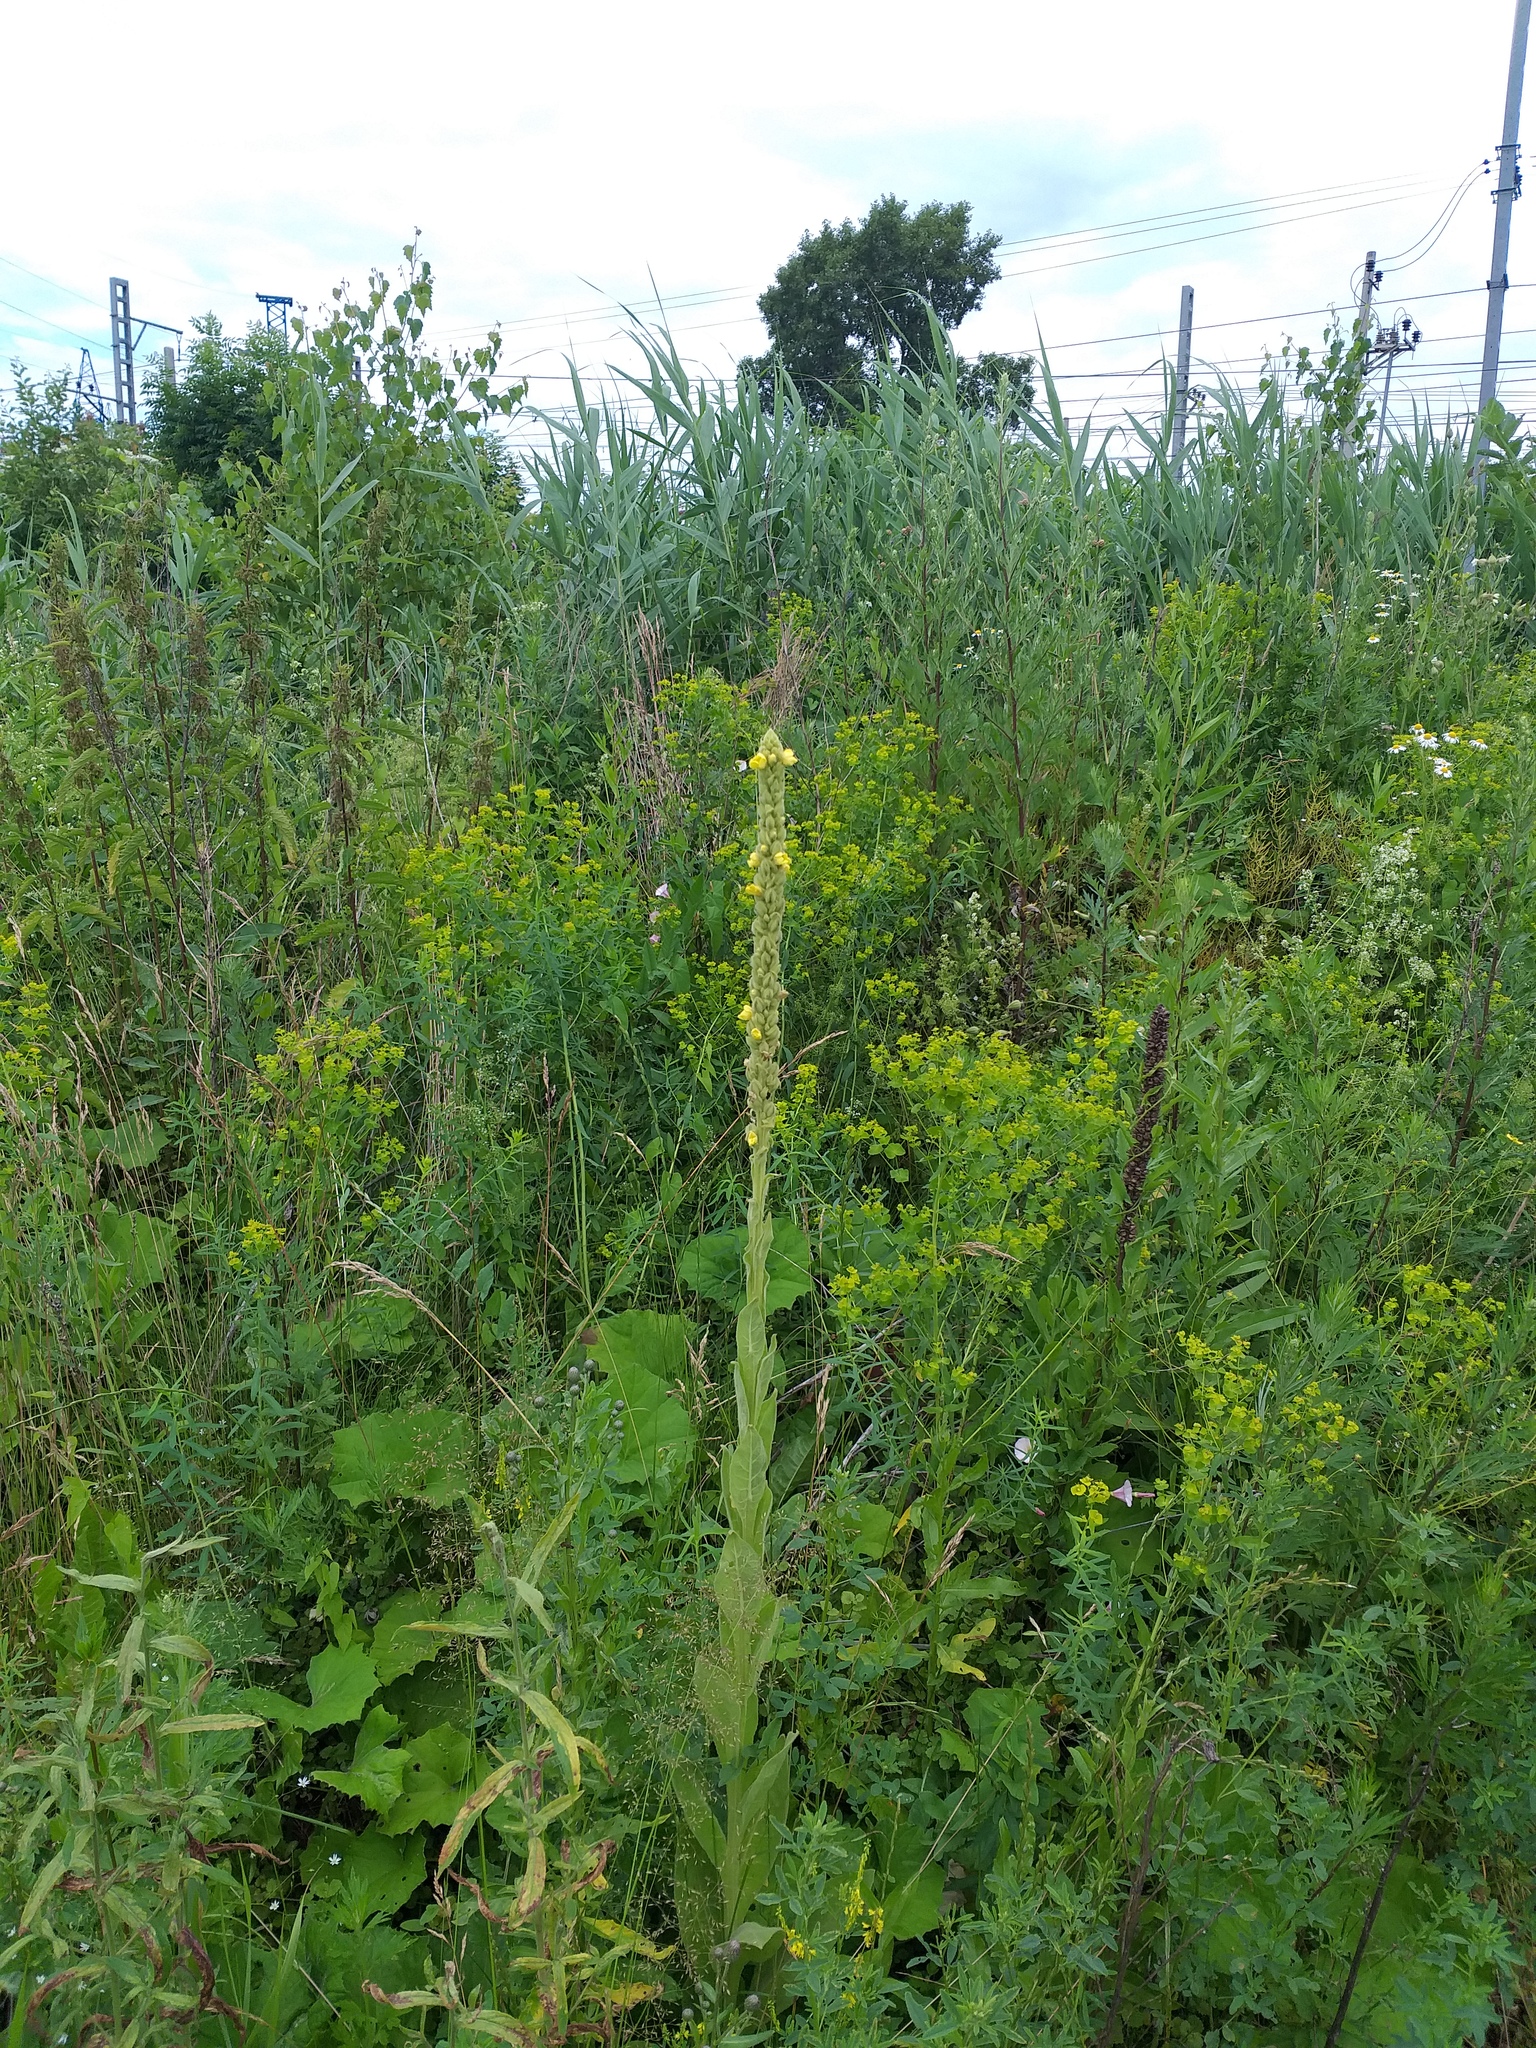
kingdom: Plantae
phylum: Tracheophyta
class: Magnoliopsida
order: Lamiales
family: Scrophulariaceae
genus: Verbascum
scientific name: Verbascum thapsus
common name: Common mullein
